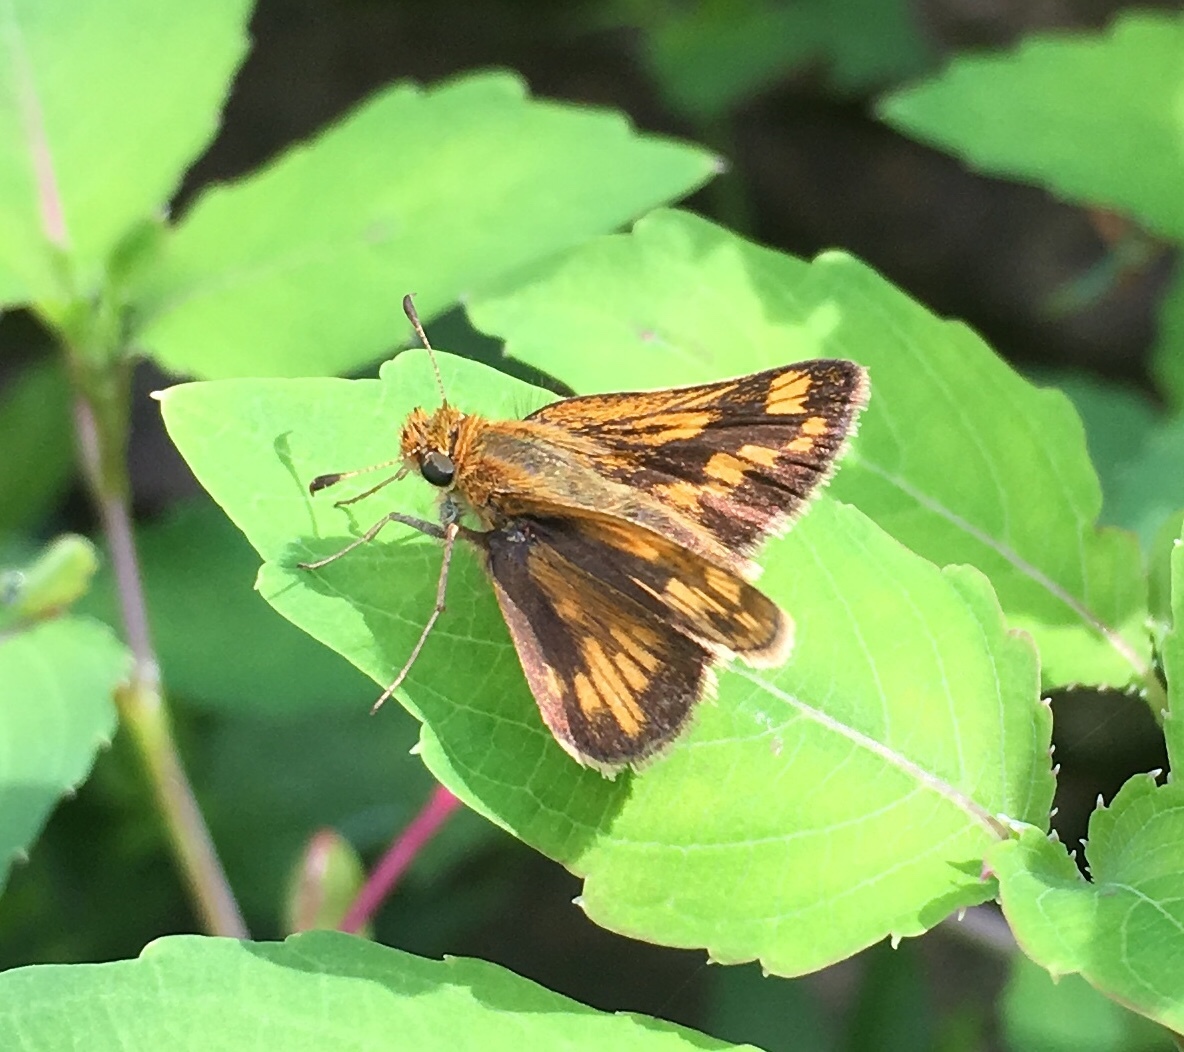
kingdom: Animalia
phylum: Arthropoda
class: Insecta
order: Lepidoptera
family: Hesperiidae
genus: Polites
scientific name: Polites coras
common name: Peck's skipper
